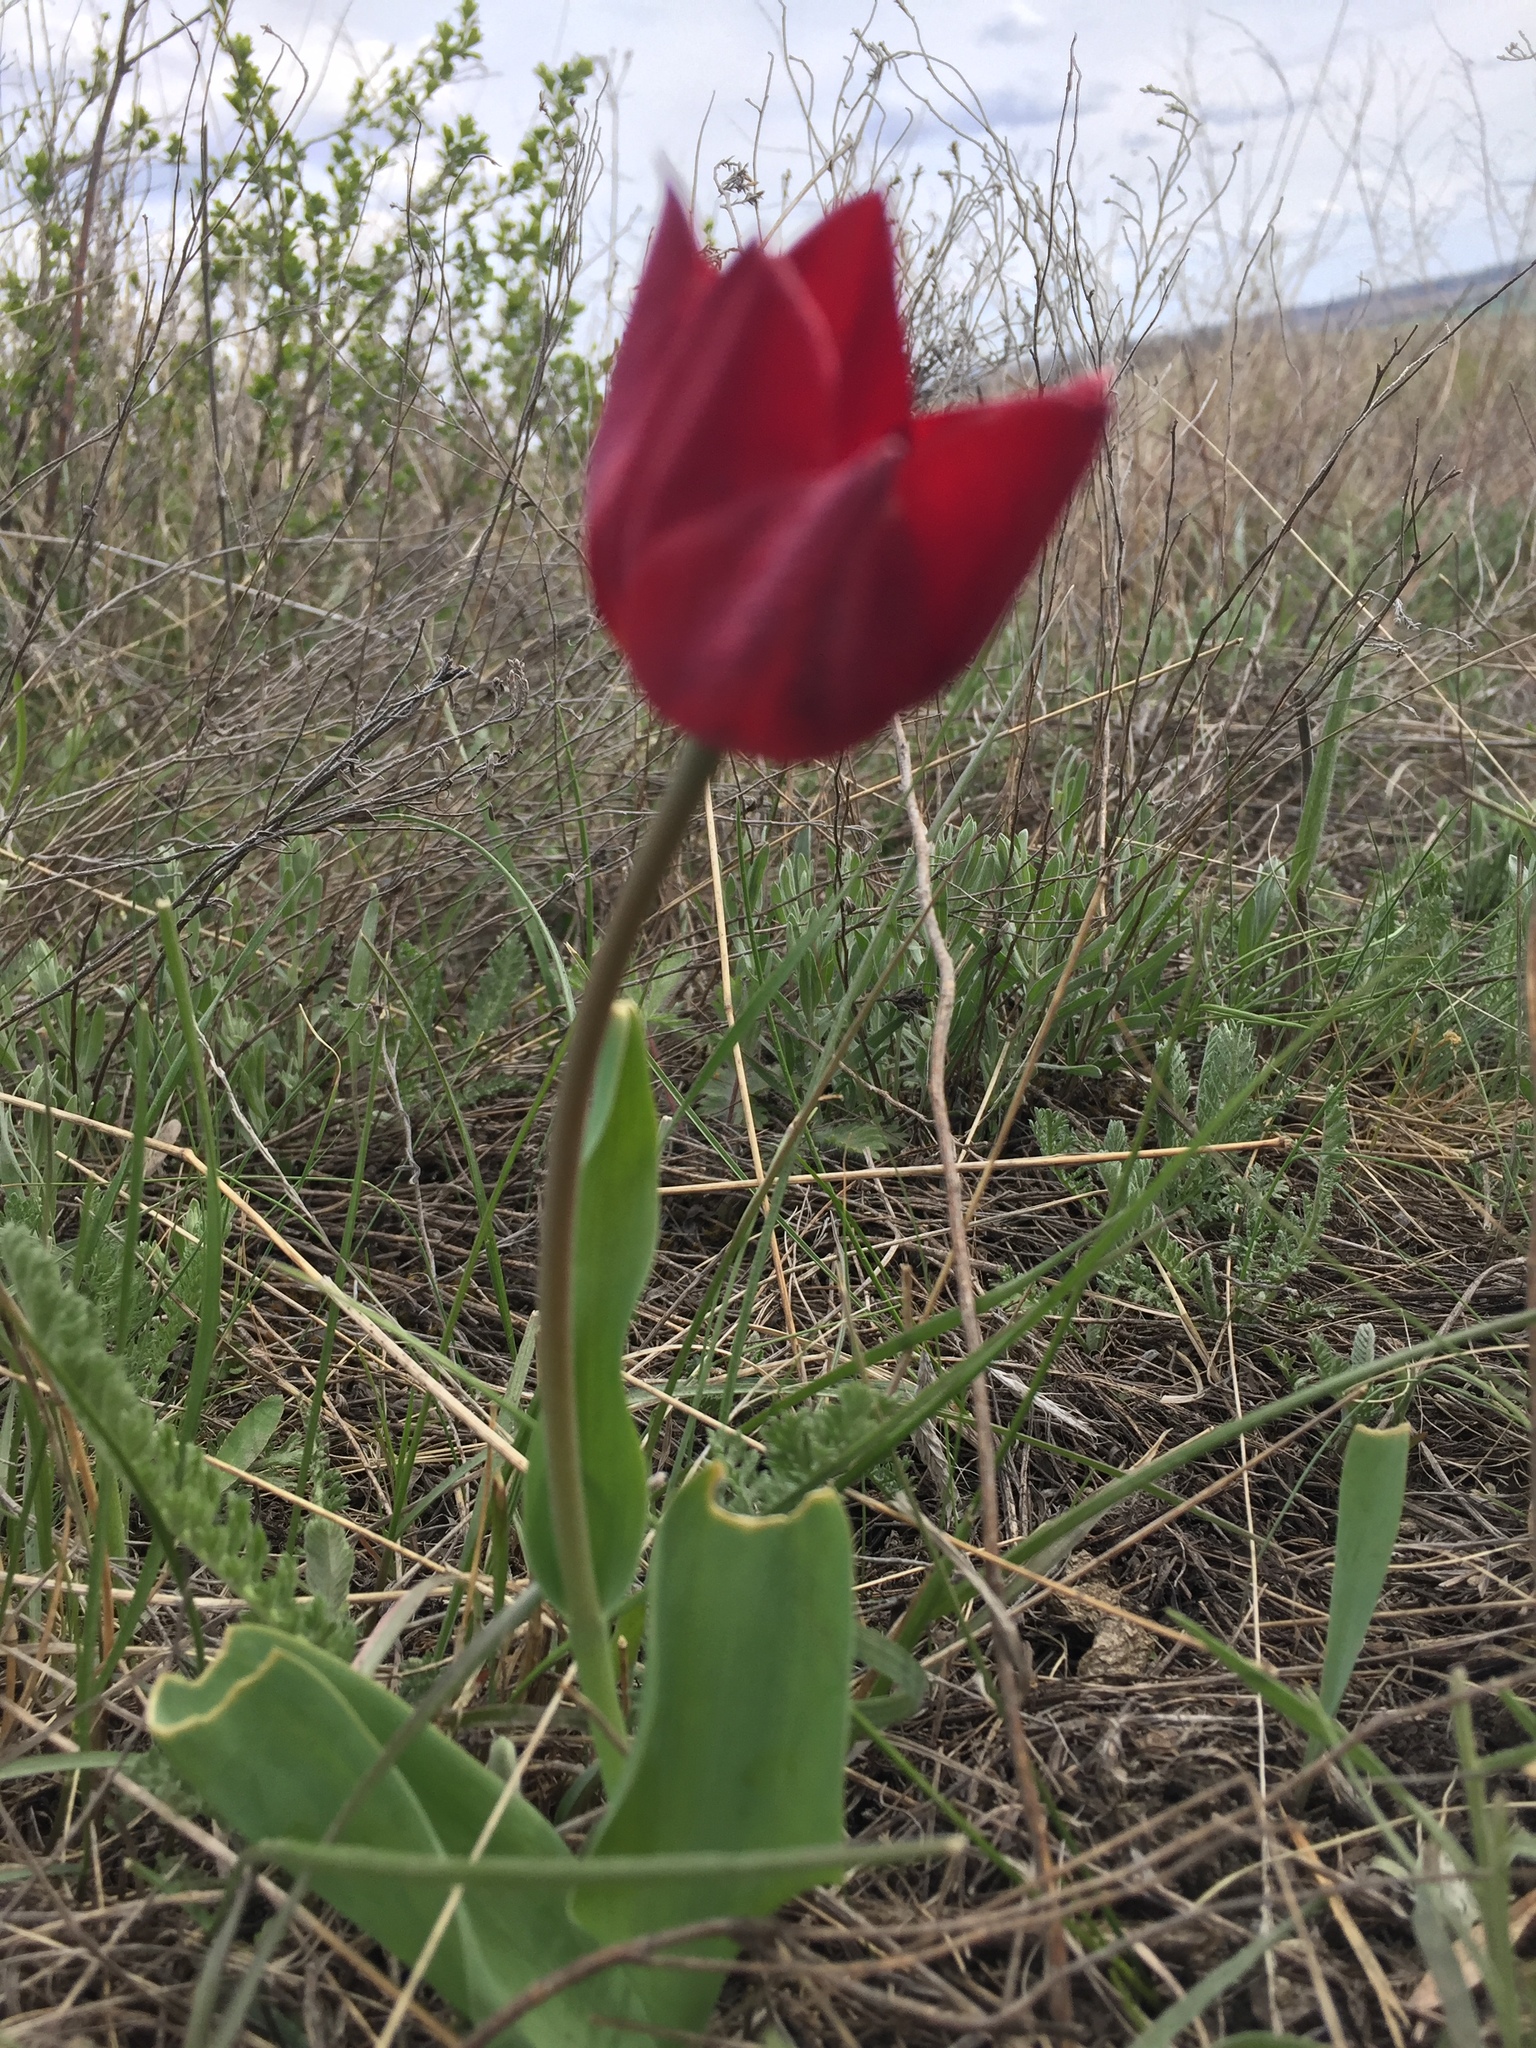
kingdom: Plantae
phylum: Tracheophyta
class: Liliopsida
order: Liliales
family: Liliaceae
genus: Tulipa
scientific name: Tulipa suaveolens
